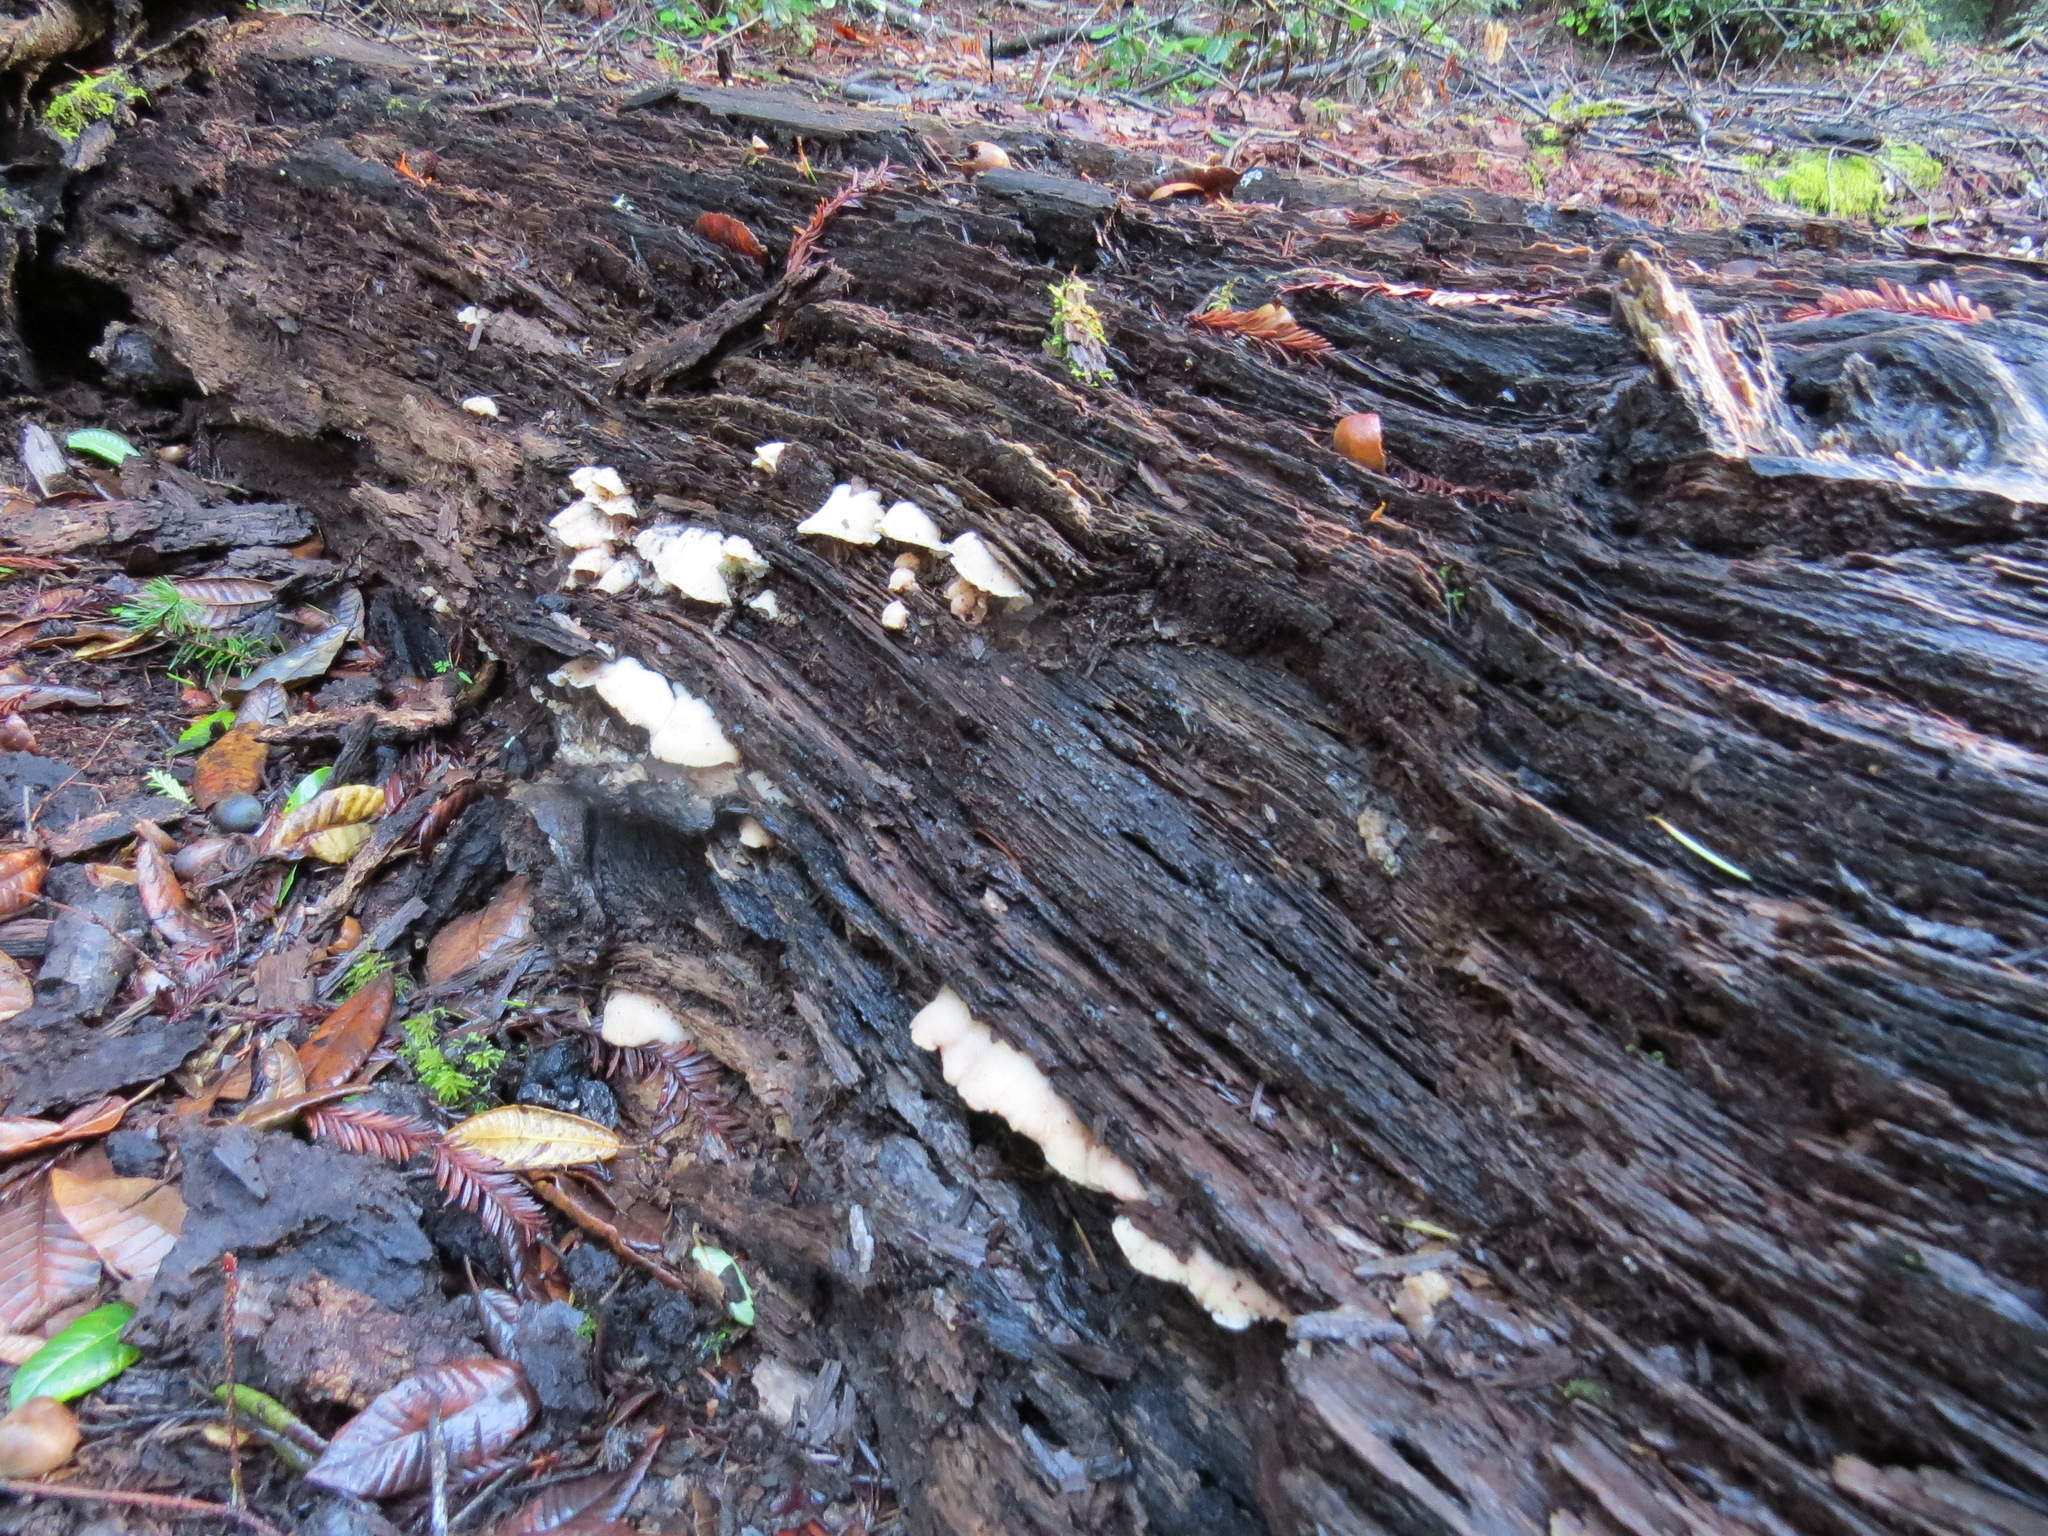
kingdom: Fungi
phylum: Basidiomycota
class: Agaricomycetes
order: Polyporales
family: Meruliaceae
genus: Phlebia
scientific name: Phlebia tremellosa
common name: Jelly rot
